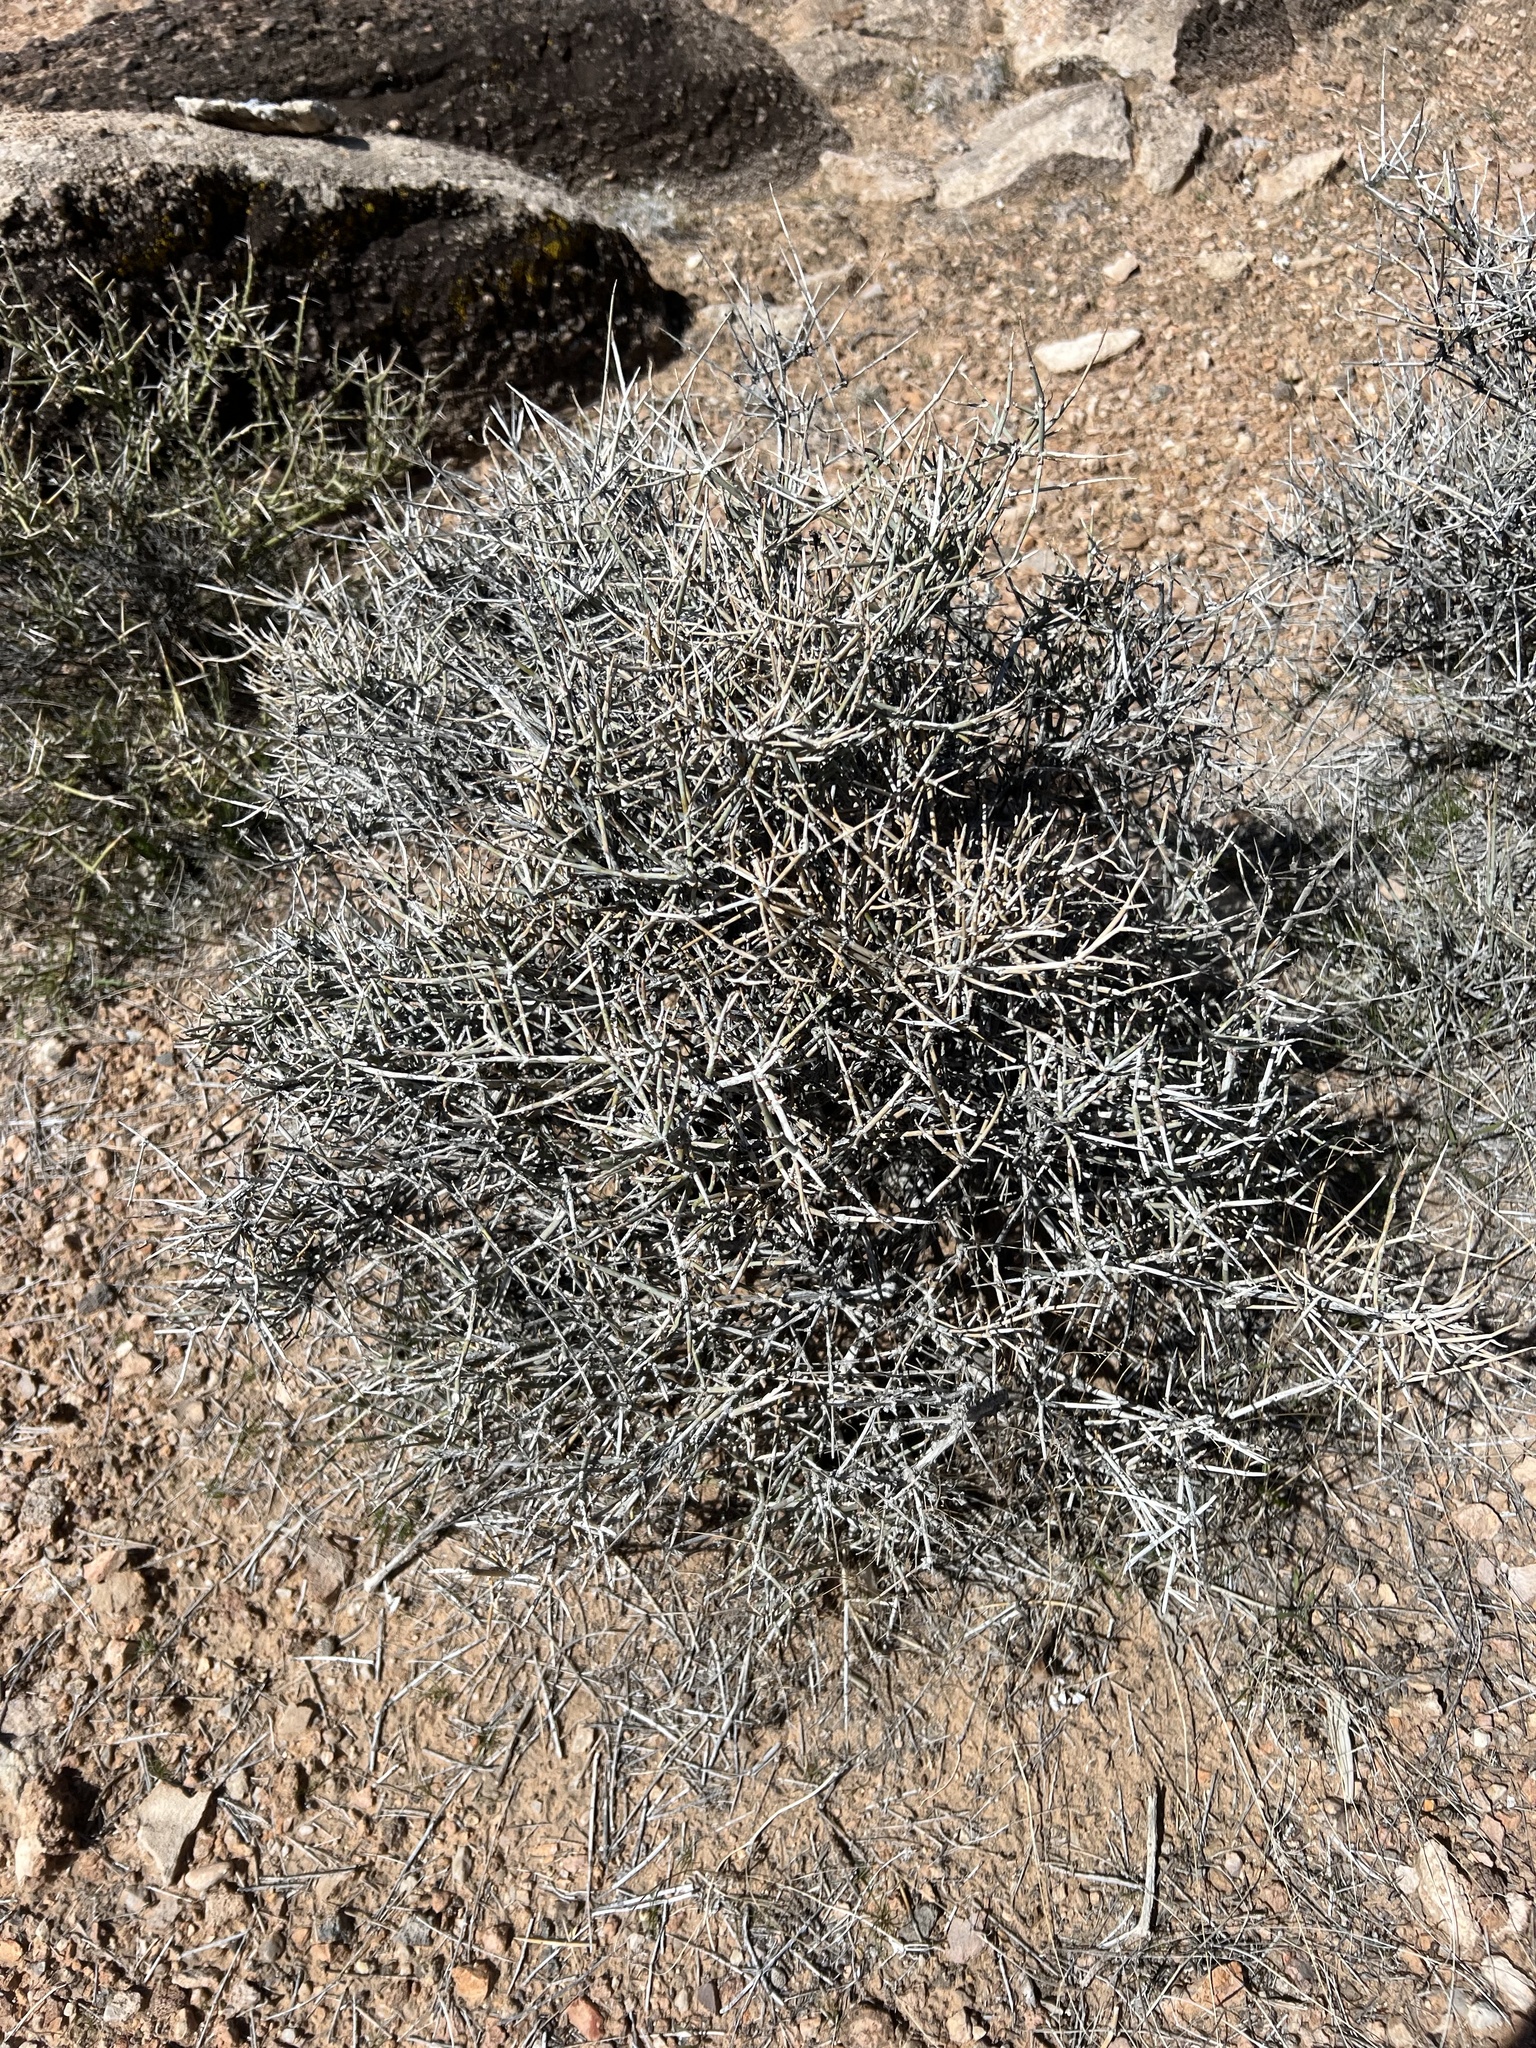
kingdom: Plantae
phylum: Tracheophyta
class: Gnetopsida
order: Ephedrales
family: Ephedraceae
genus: Ephedra
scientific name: Ephedra nevadensis
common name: Gray ephedra
